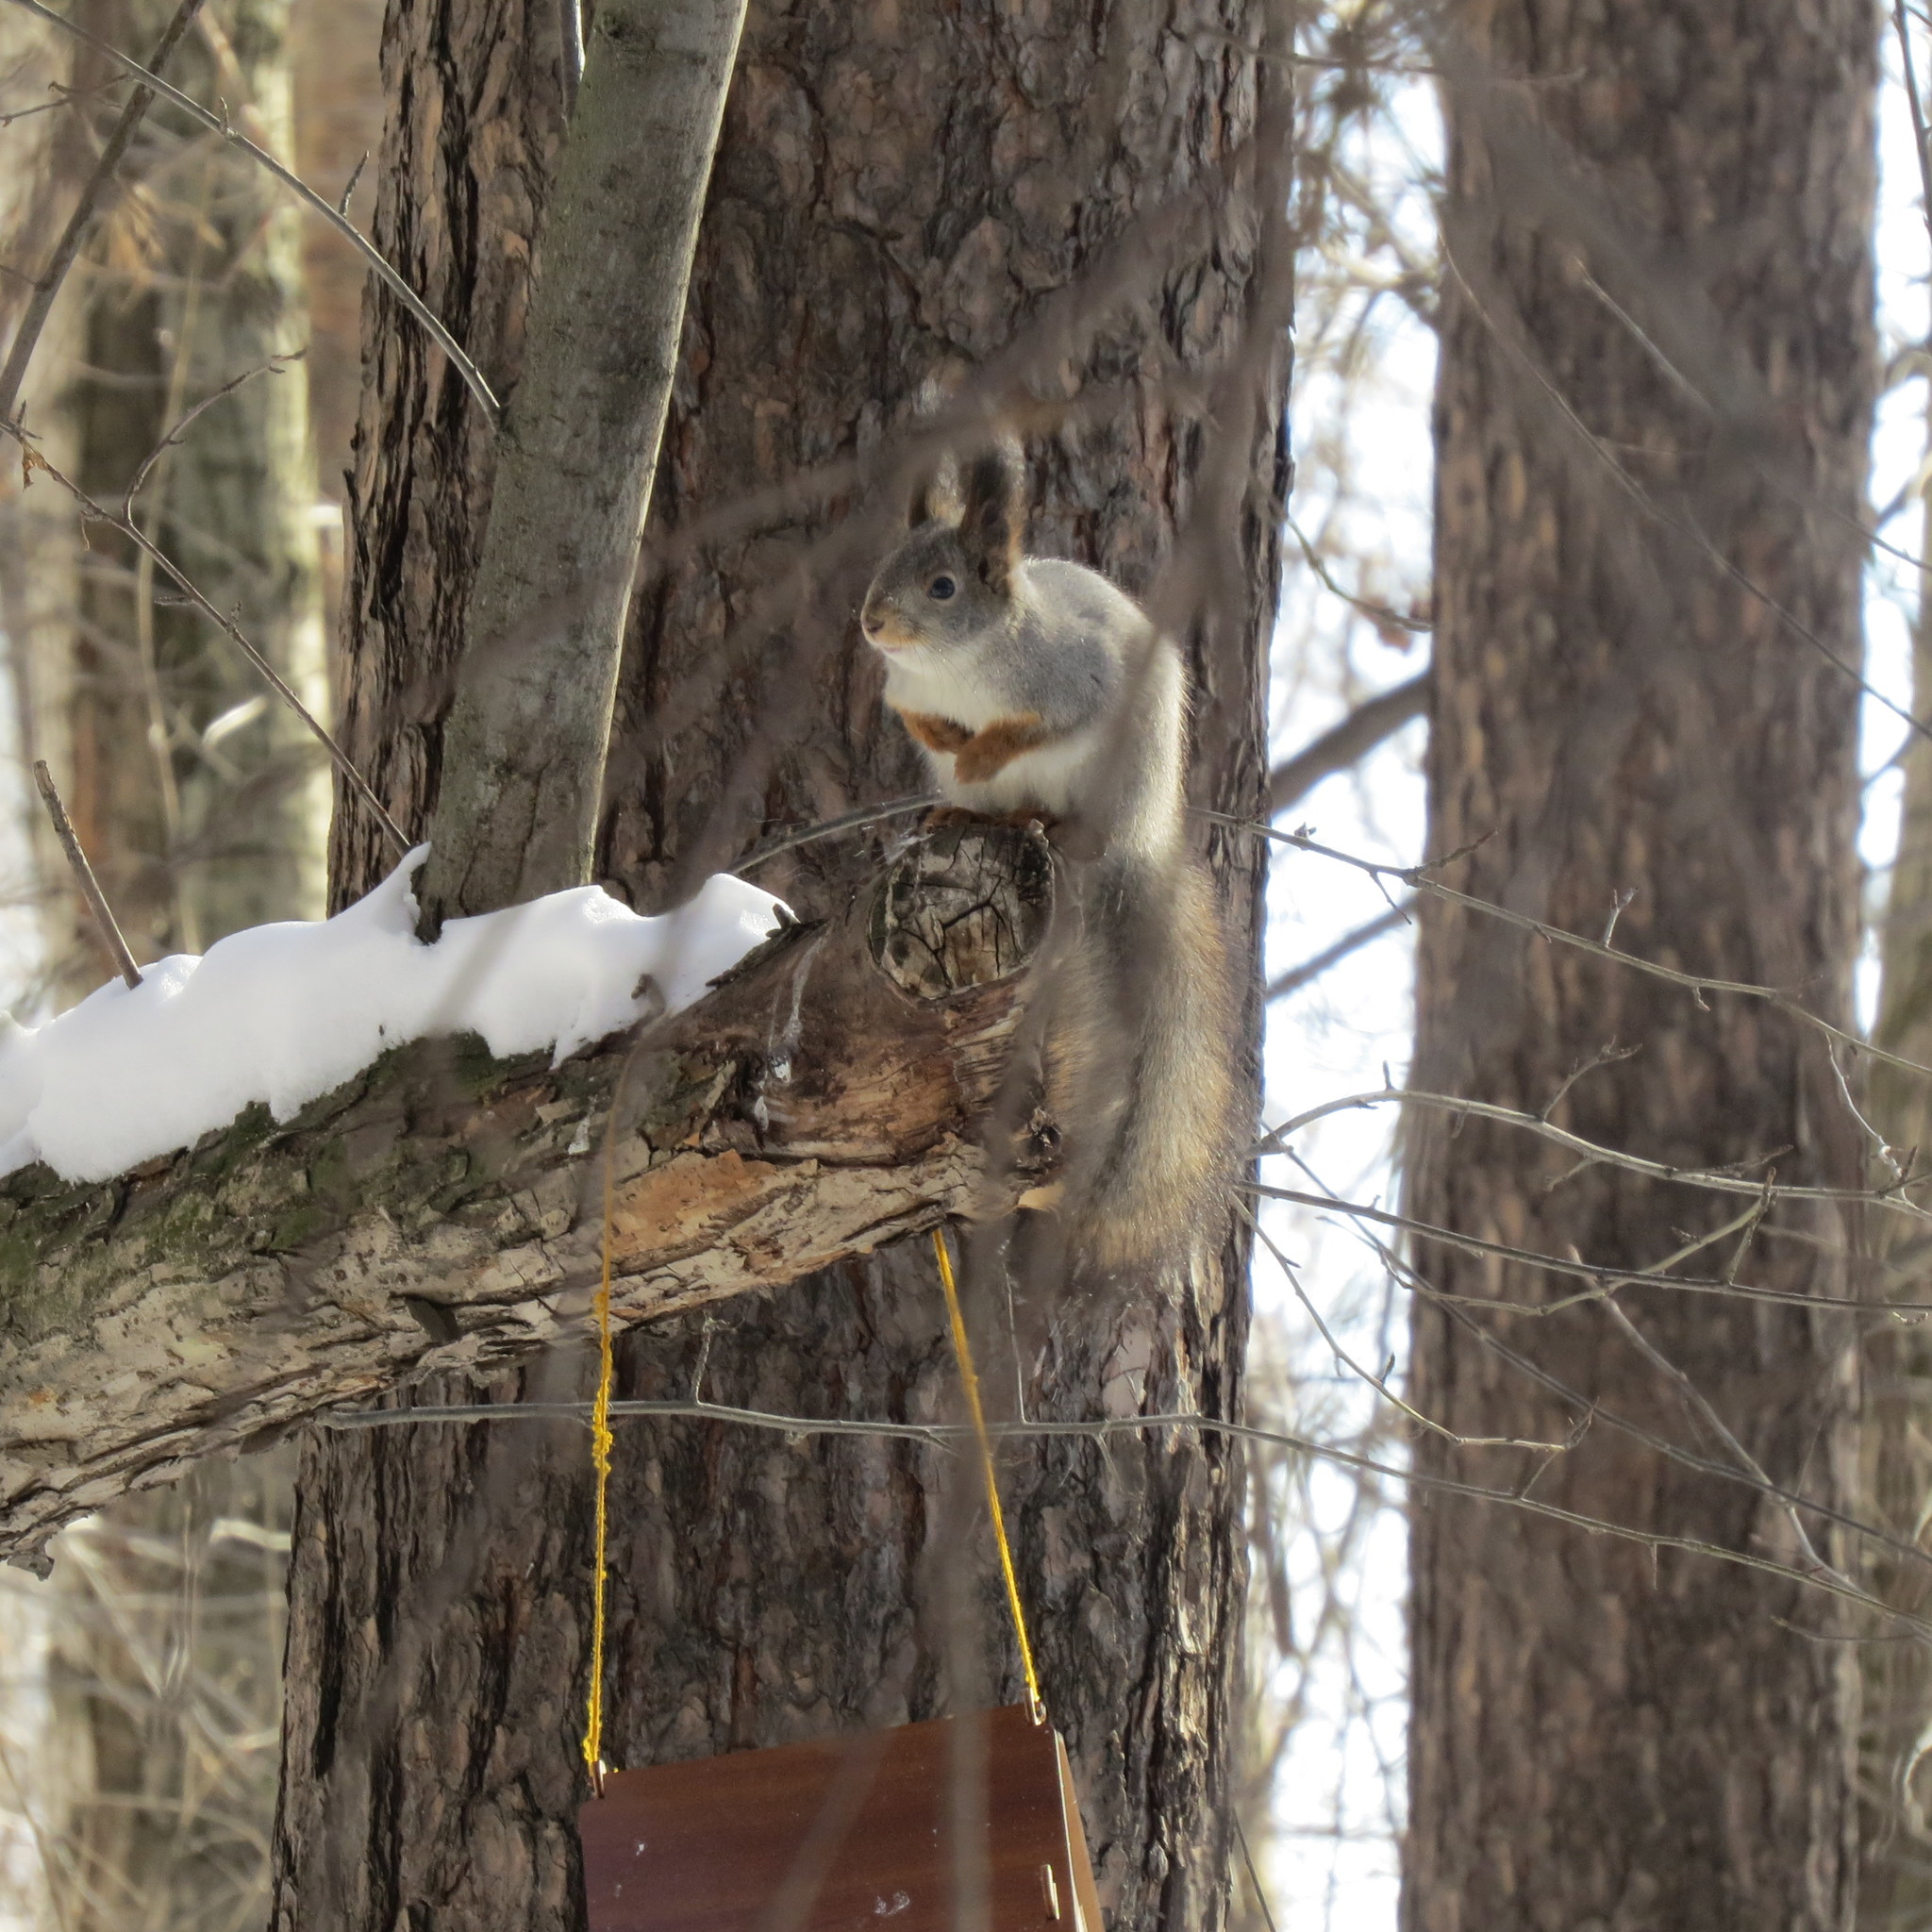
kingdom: Animalia
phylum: Chordata
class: Mammalia
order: Rodentia
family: Sciuridae
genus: Sciurus
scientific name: Sciurus vulgaris
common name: Eurasian red squirrel
